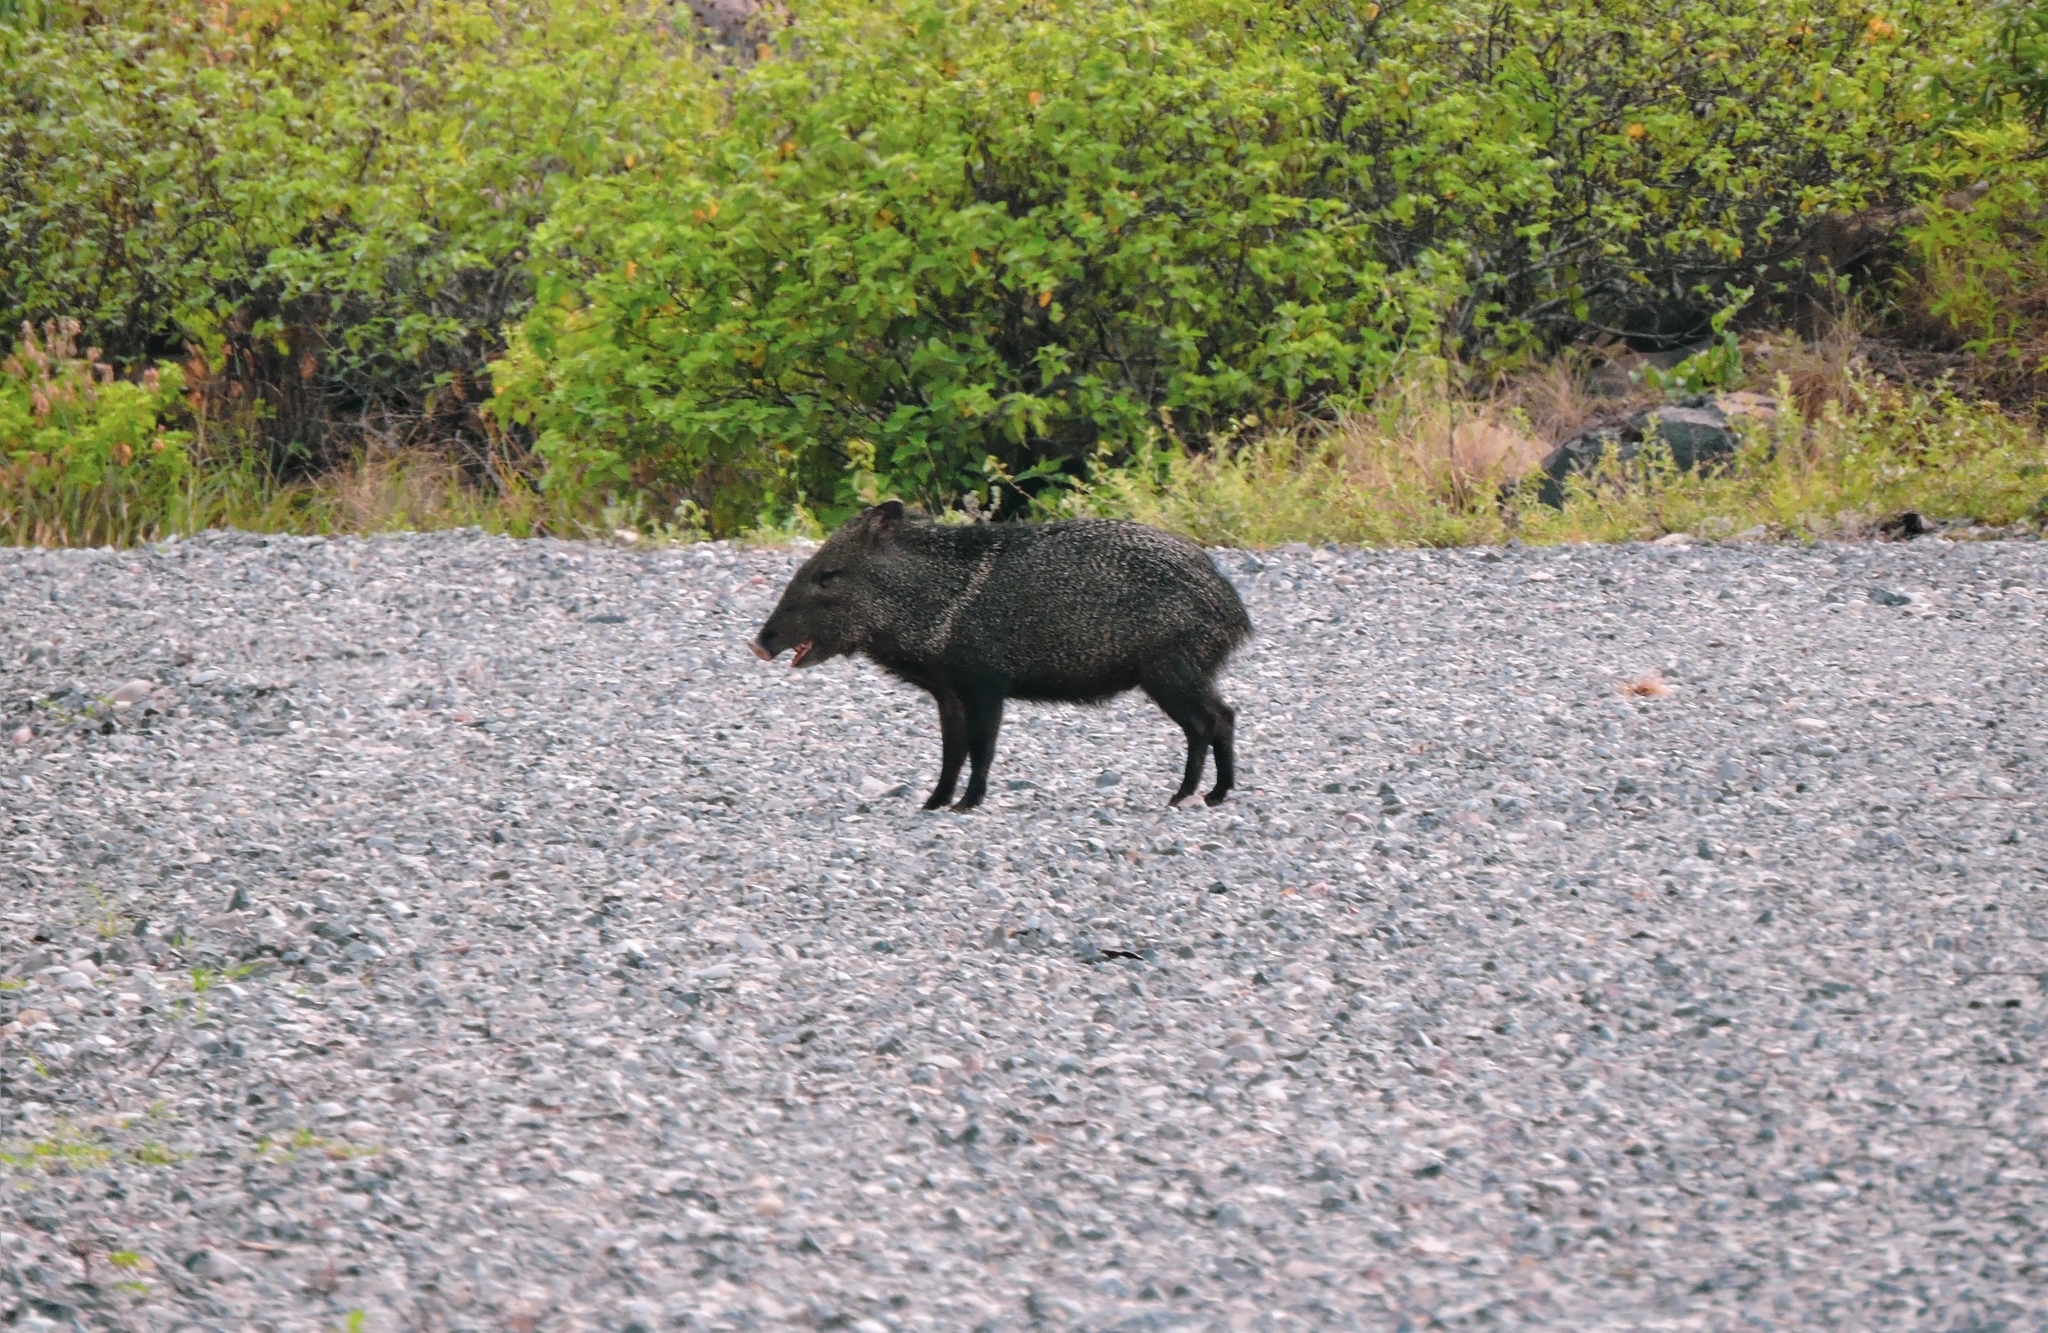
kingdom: Animalia
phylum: Chordata
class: Mammalia
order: Artiodactyla
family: Tayassuidae
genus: Pecari
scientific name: Pecari tajacu
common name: Collared peccary
